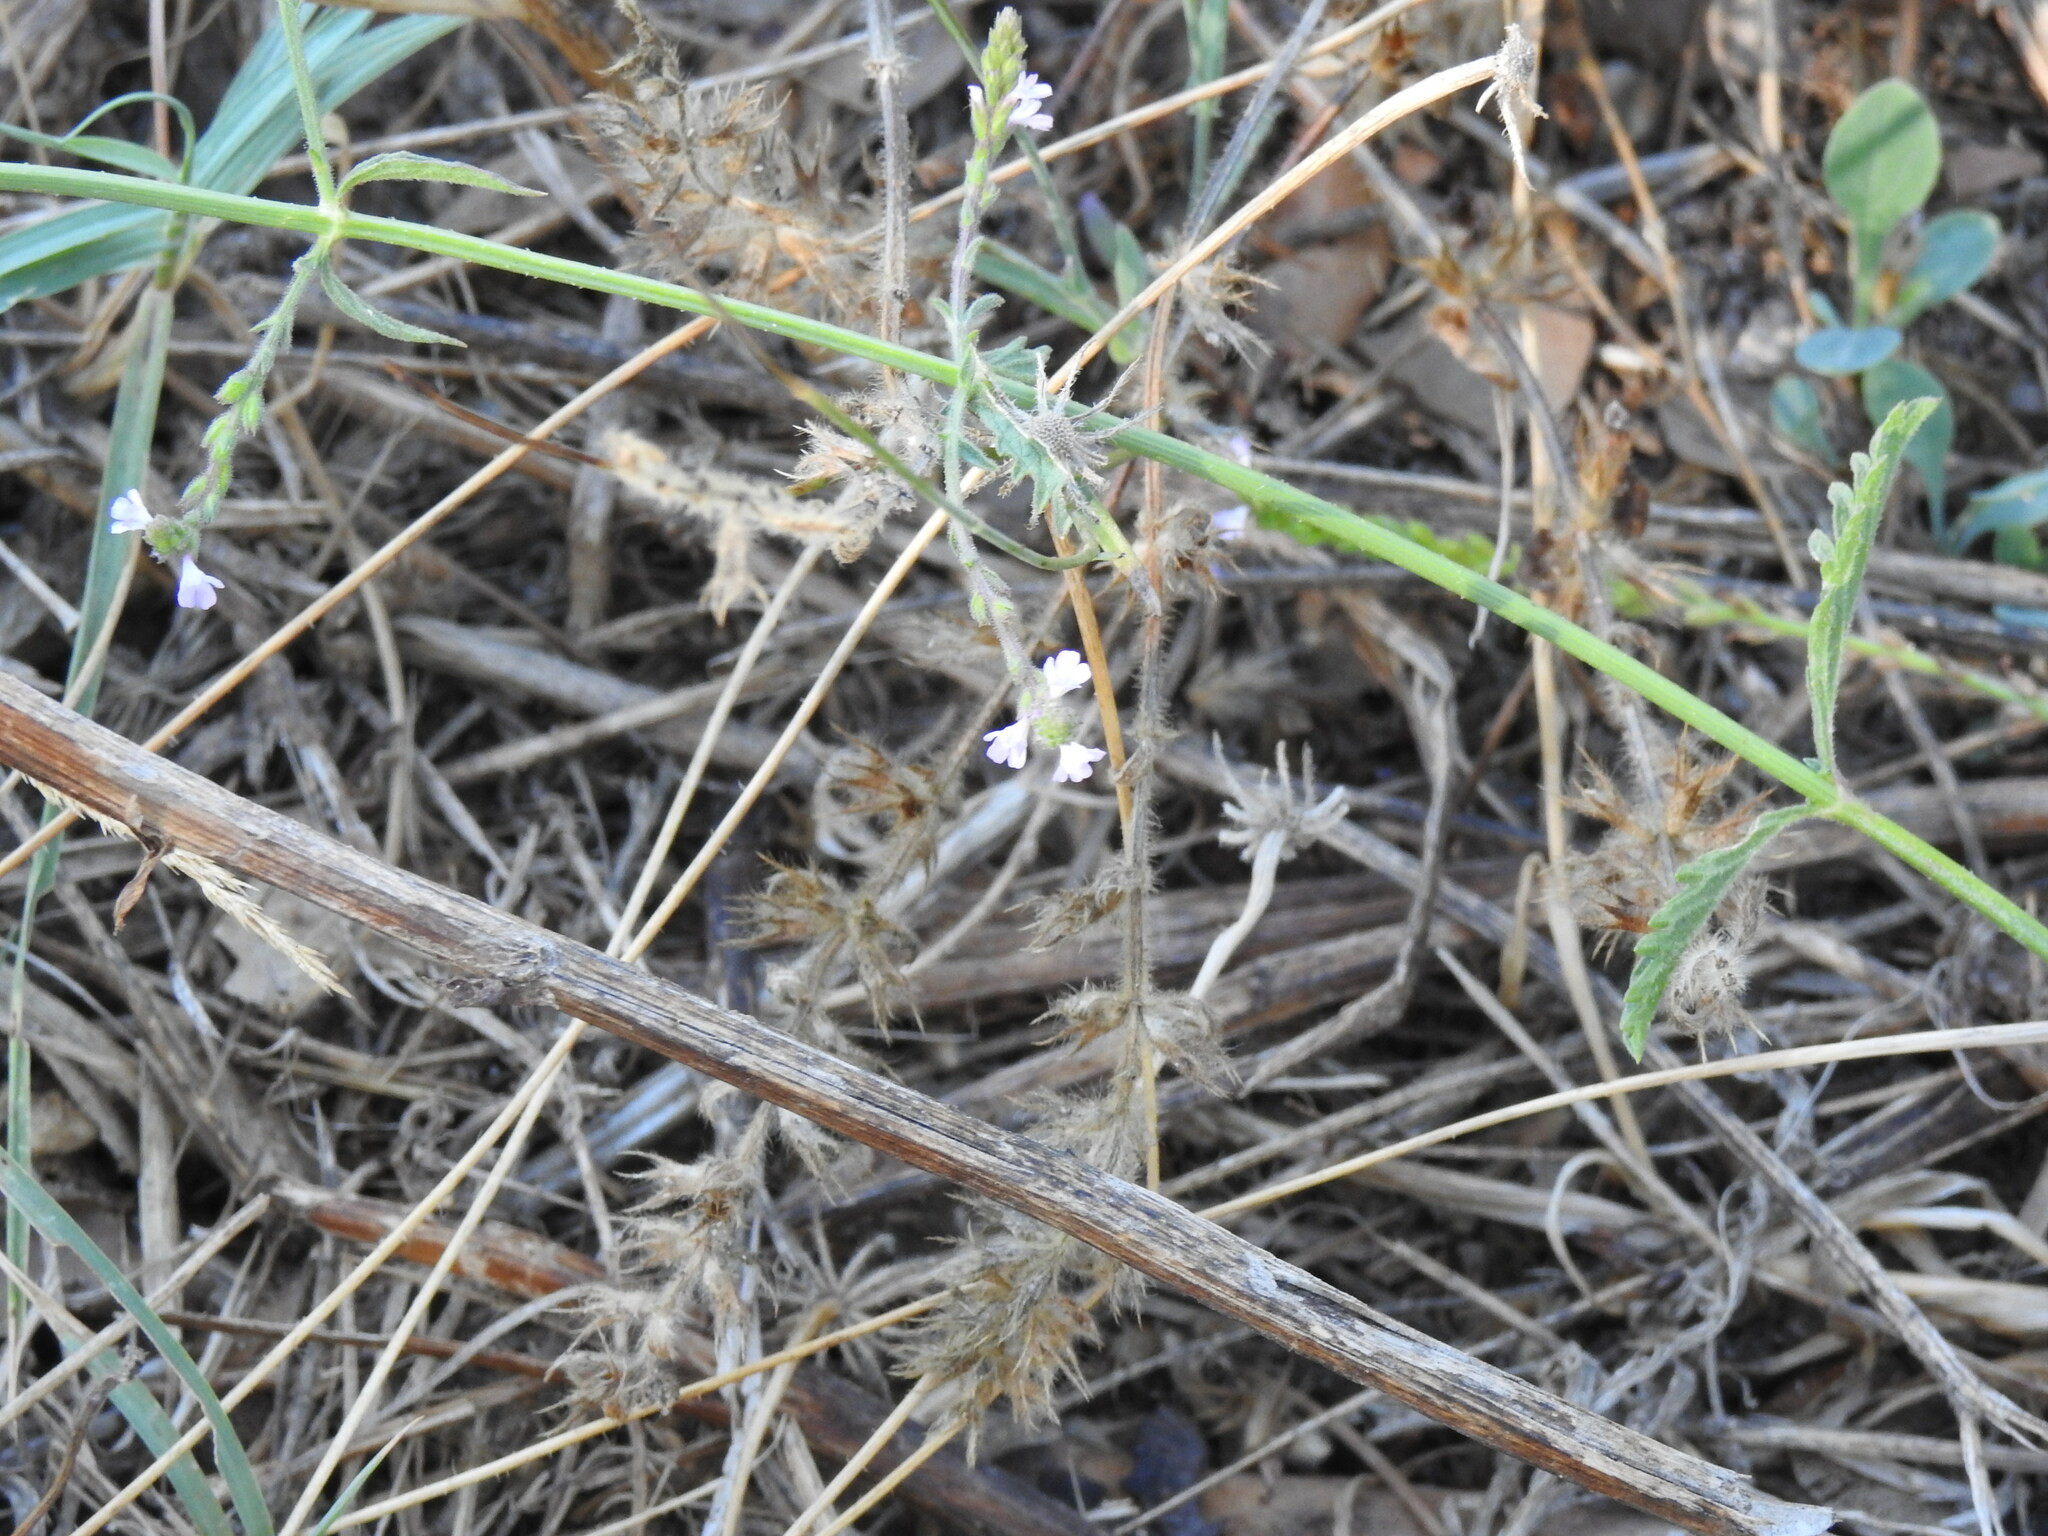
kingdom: Plantae
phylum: Tracheophyta
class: Magnoliopsida
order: Lamiales
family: Verbenaceae
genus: Verbena
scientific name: Verbena officinalis
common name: Vervain
